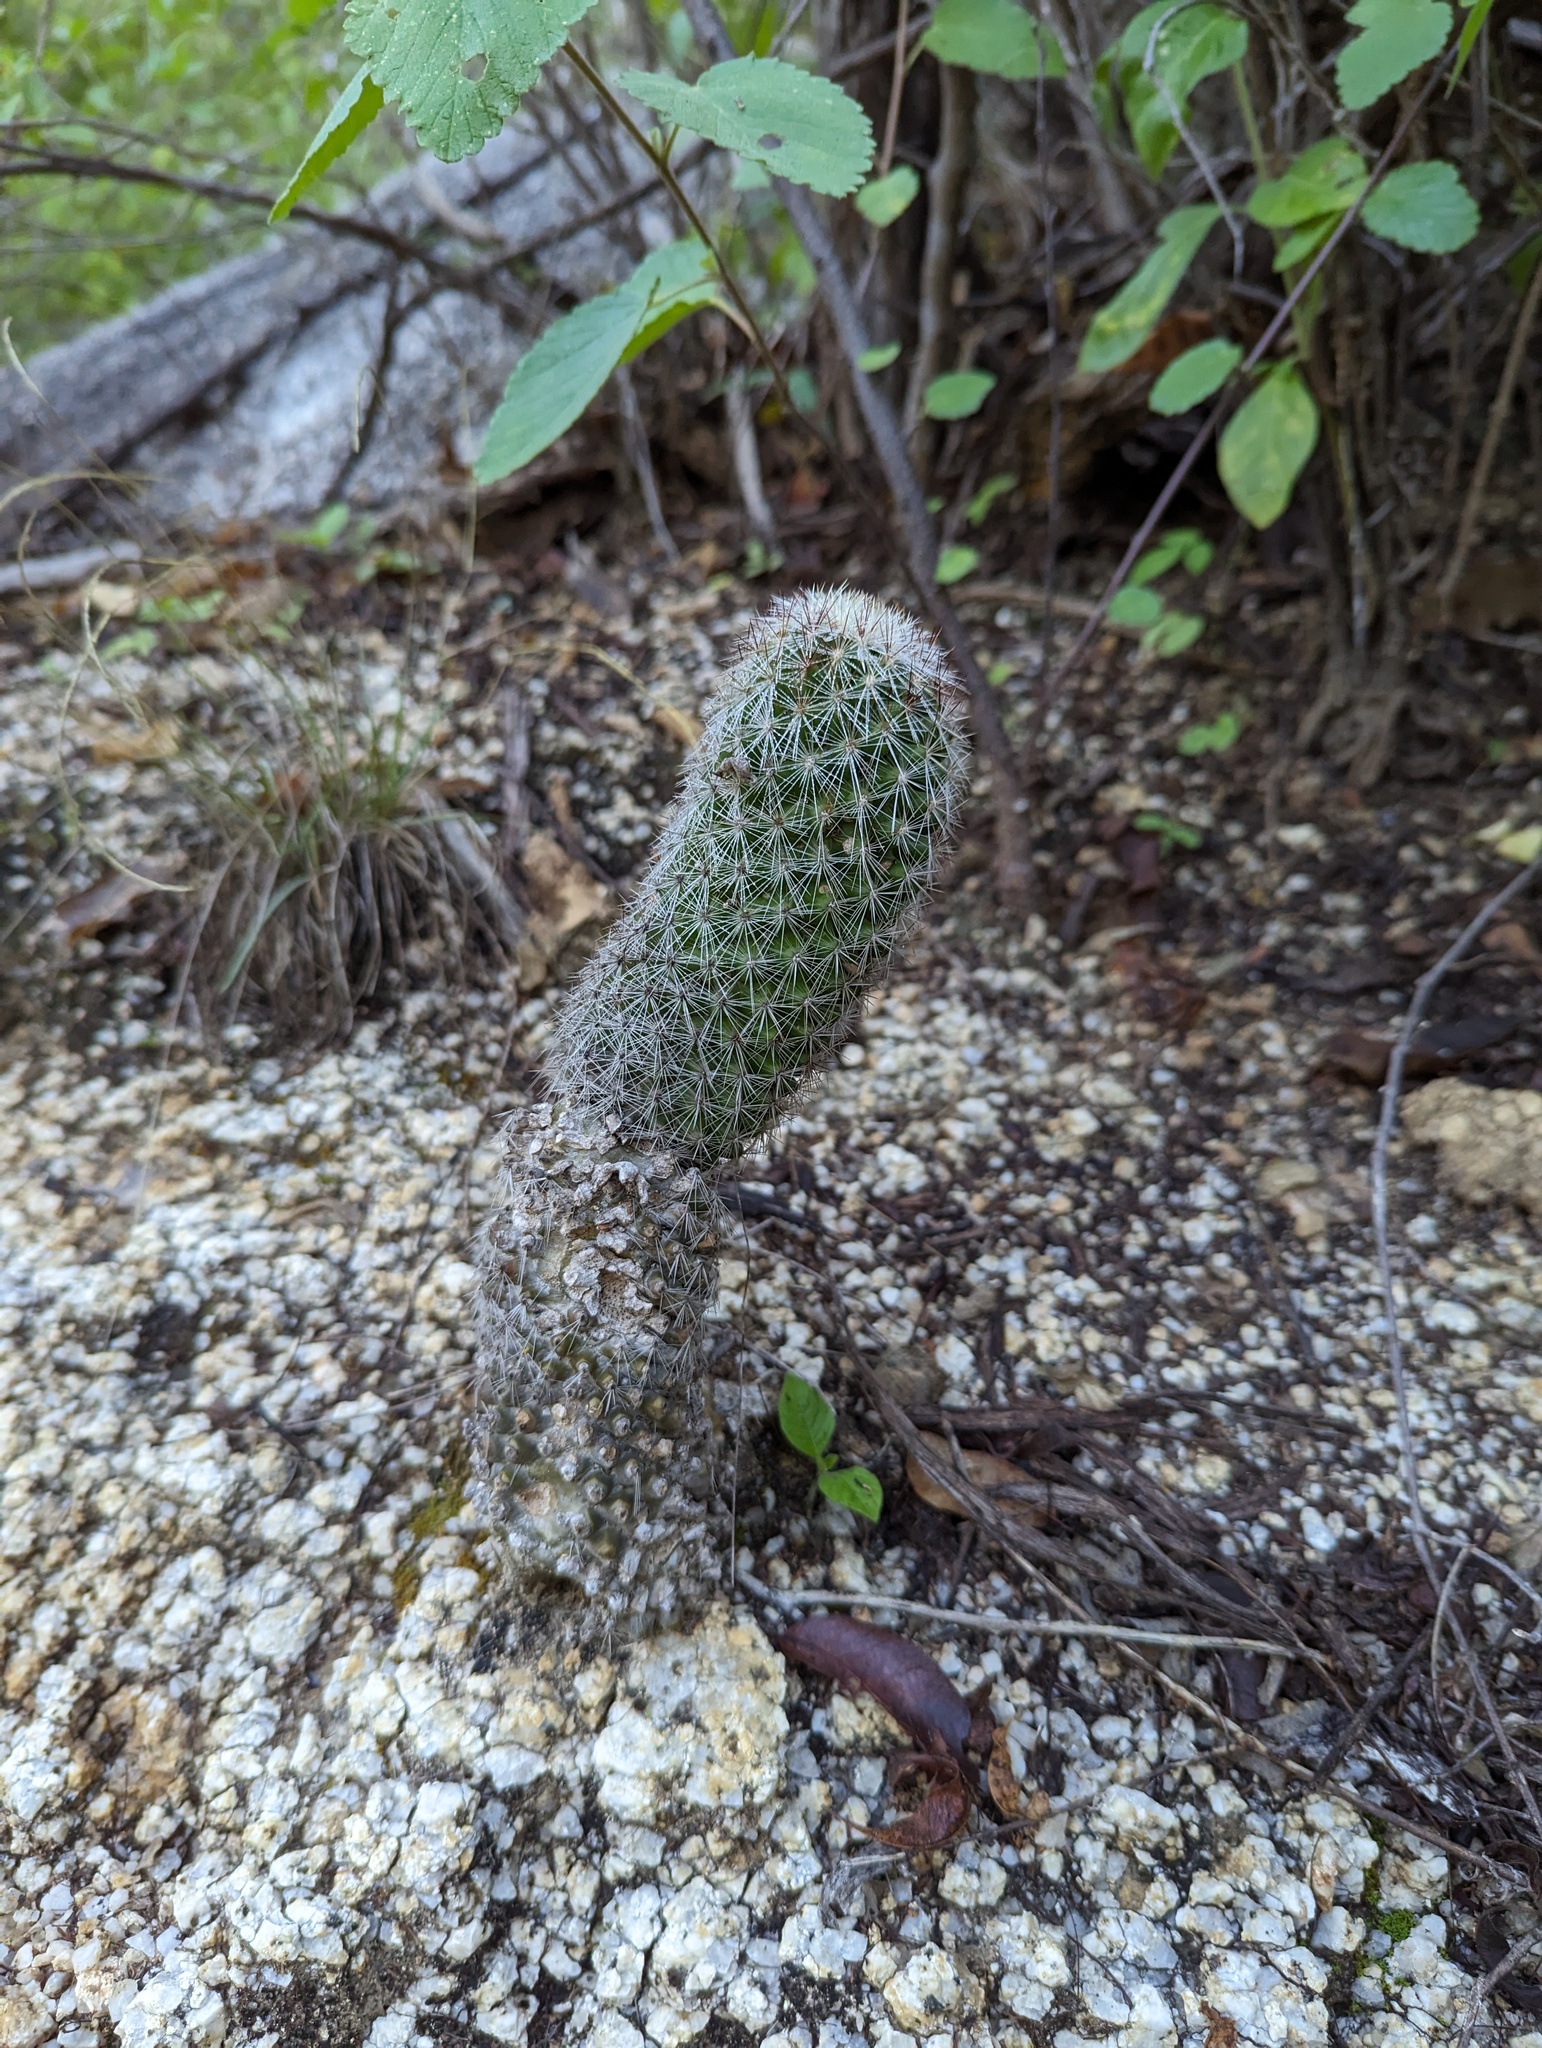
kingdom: Plantae
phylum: Tracheophyta
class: Magnoliopsida
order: Caryophyllales
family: Cactaceae
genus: Cochemiea
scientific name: Cochemiea phitauiana
